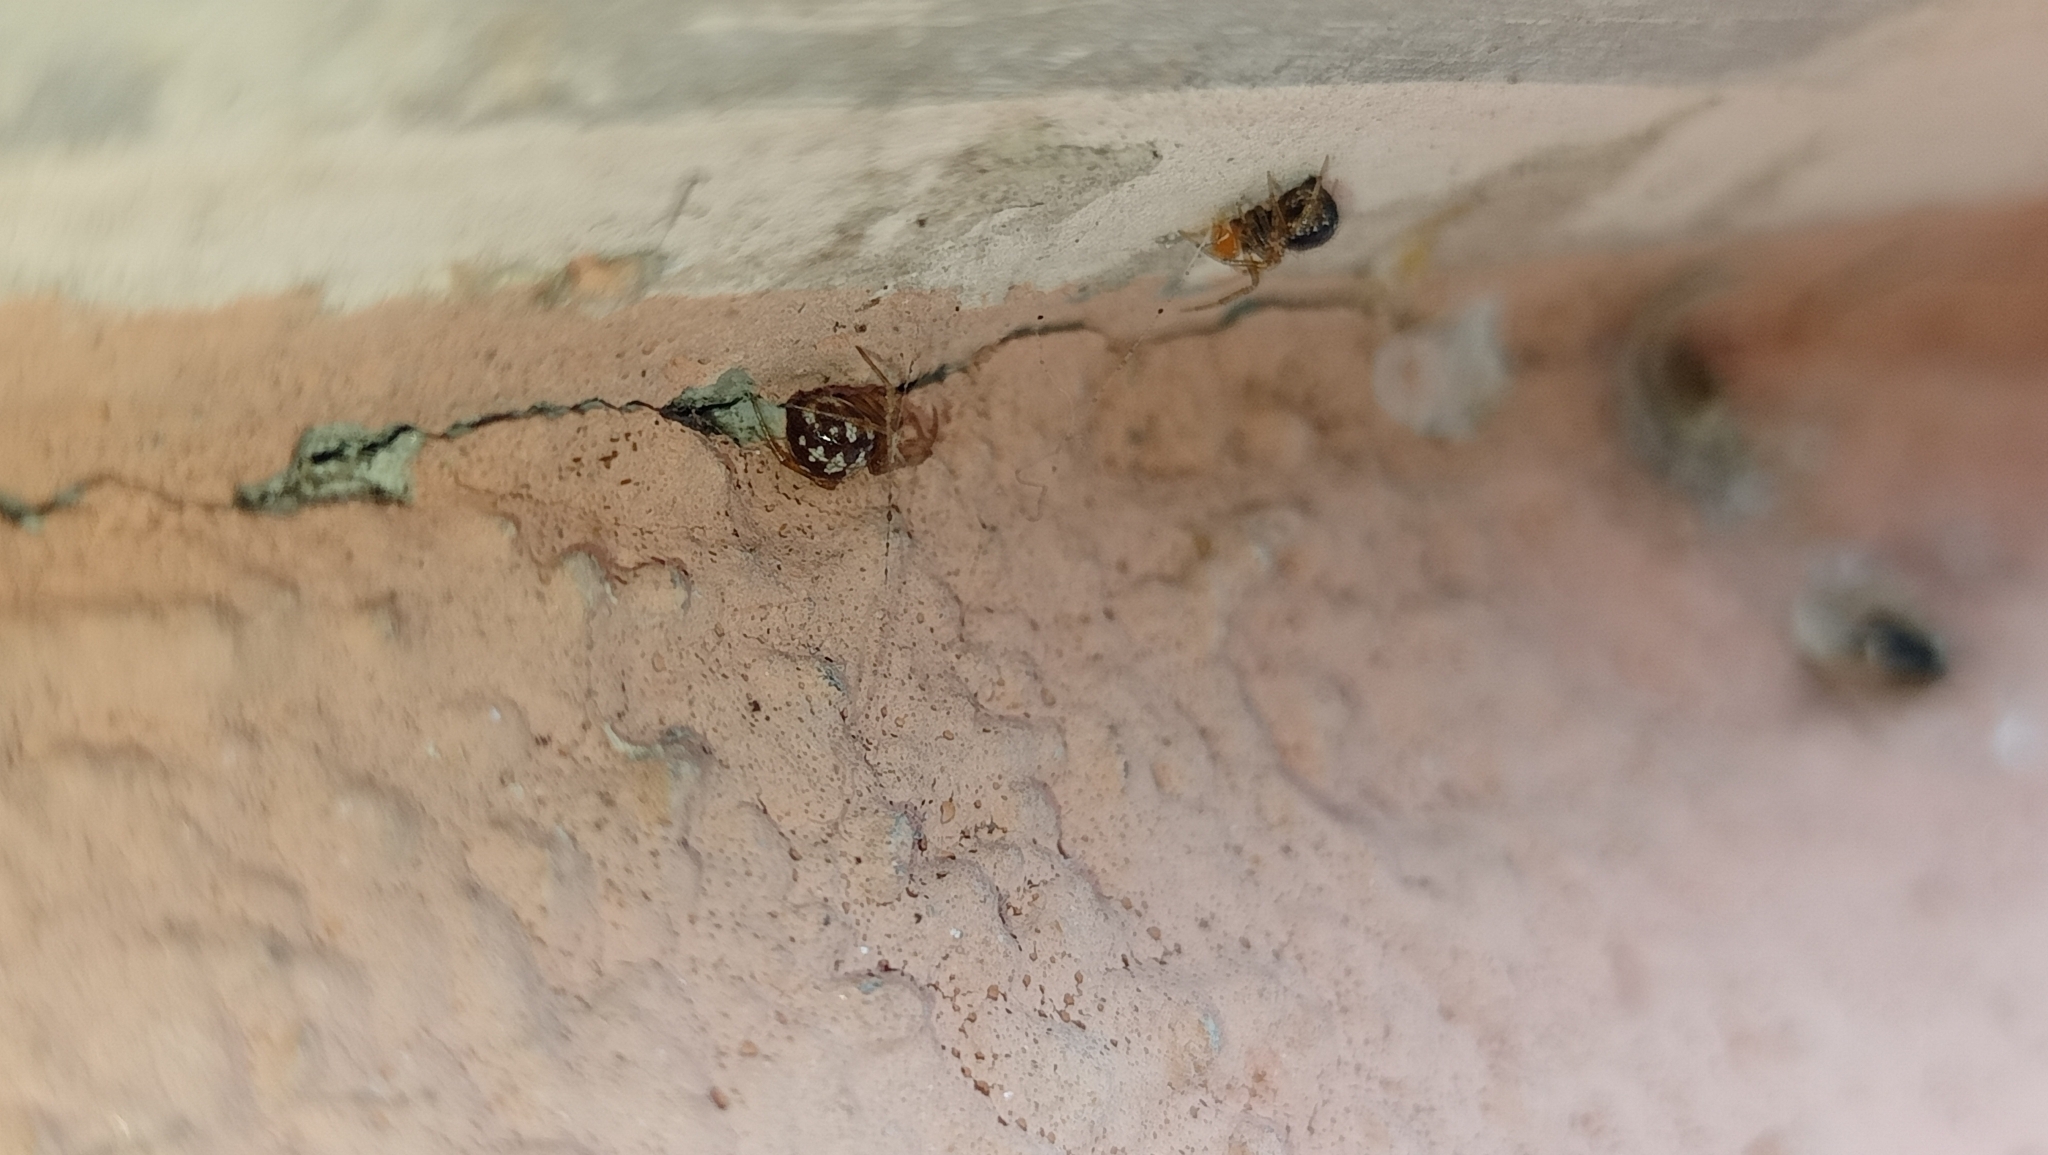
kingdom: Animalia
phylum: Arthropoda
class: Arachnida
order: Araneae
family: Theridiidae
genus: Steatoda
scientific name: Steatoda triangulosa
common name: Triangulate bud spider
